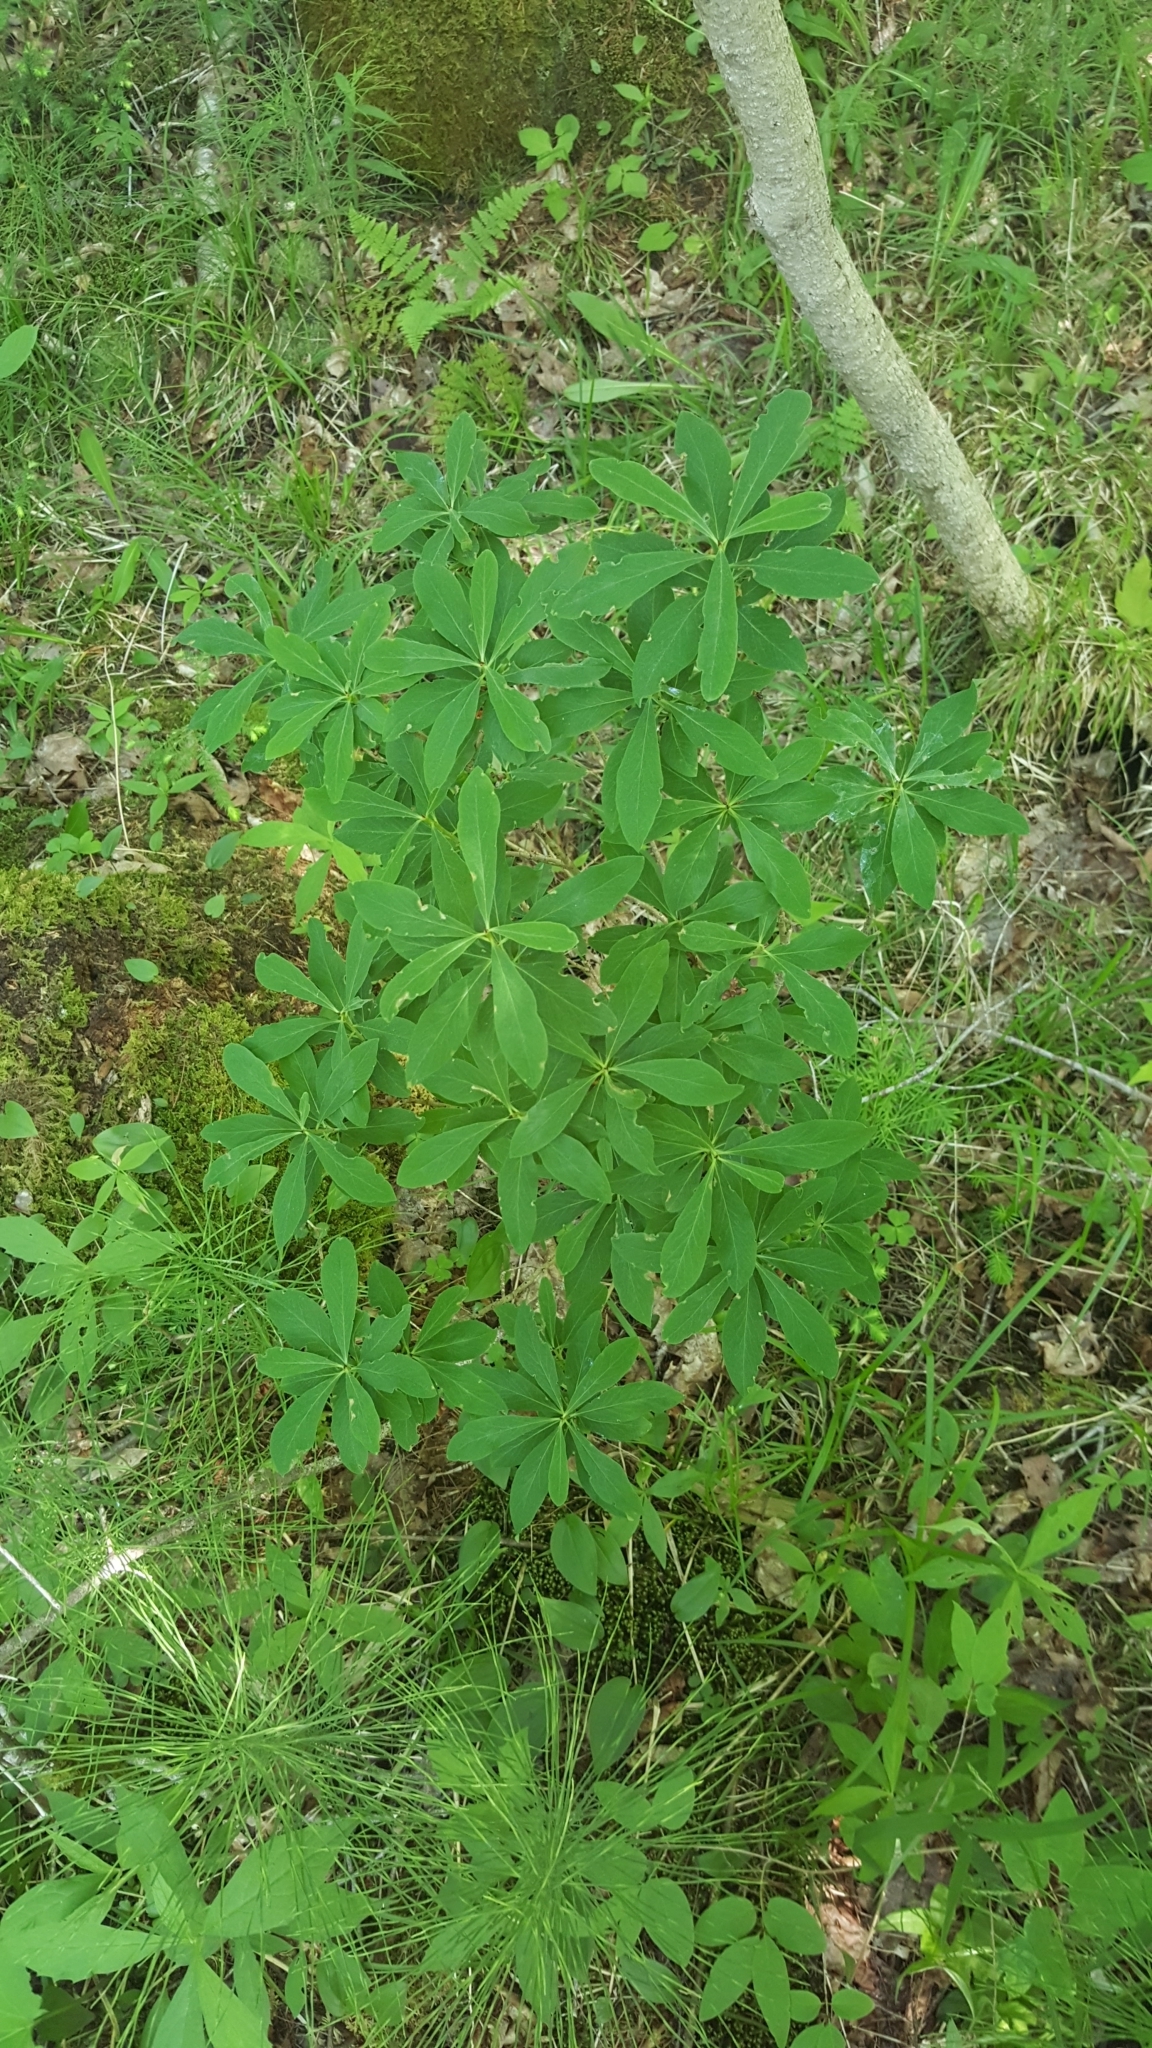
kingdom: Plantae
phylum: Tracheophyta
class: Magnoliopsida
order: Malvales
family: Thymelaeaceae
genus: Daphne
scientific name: Daphne mezereum
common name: Mezereon
